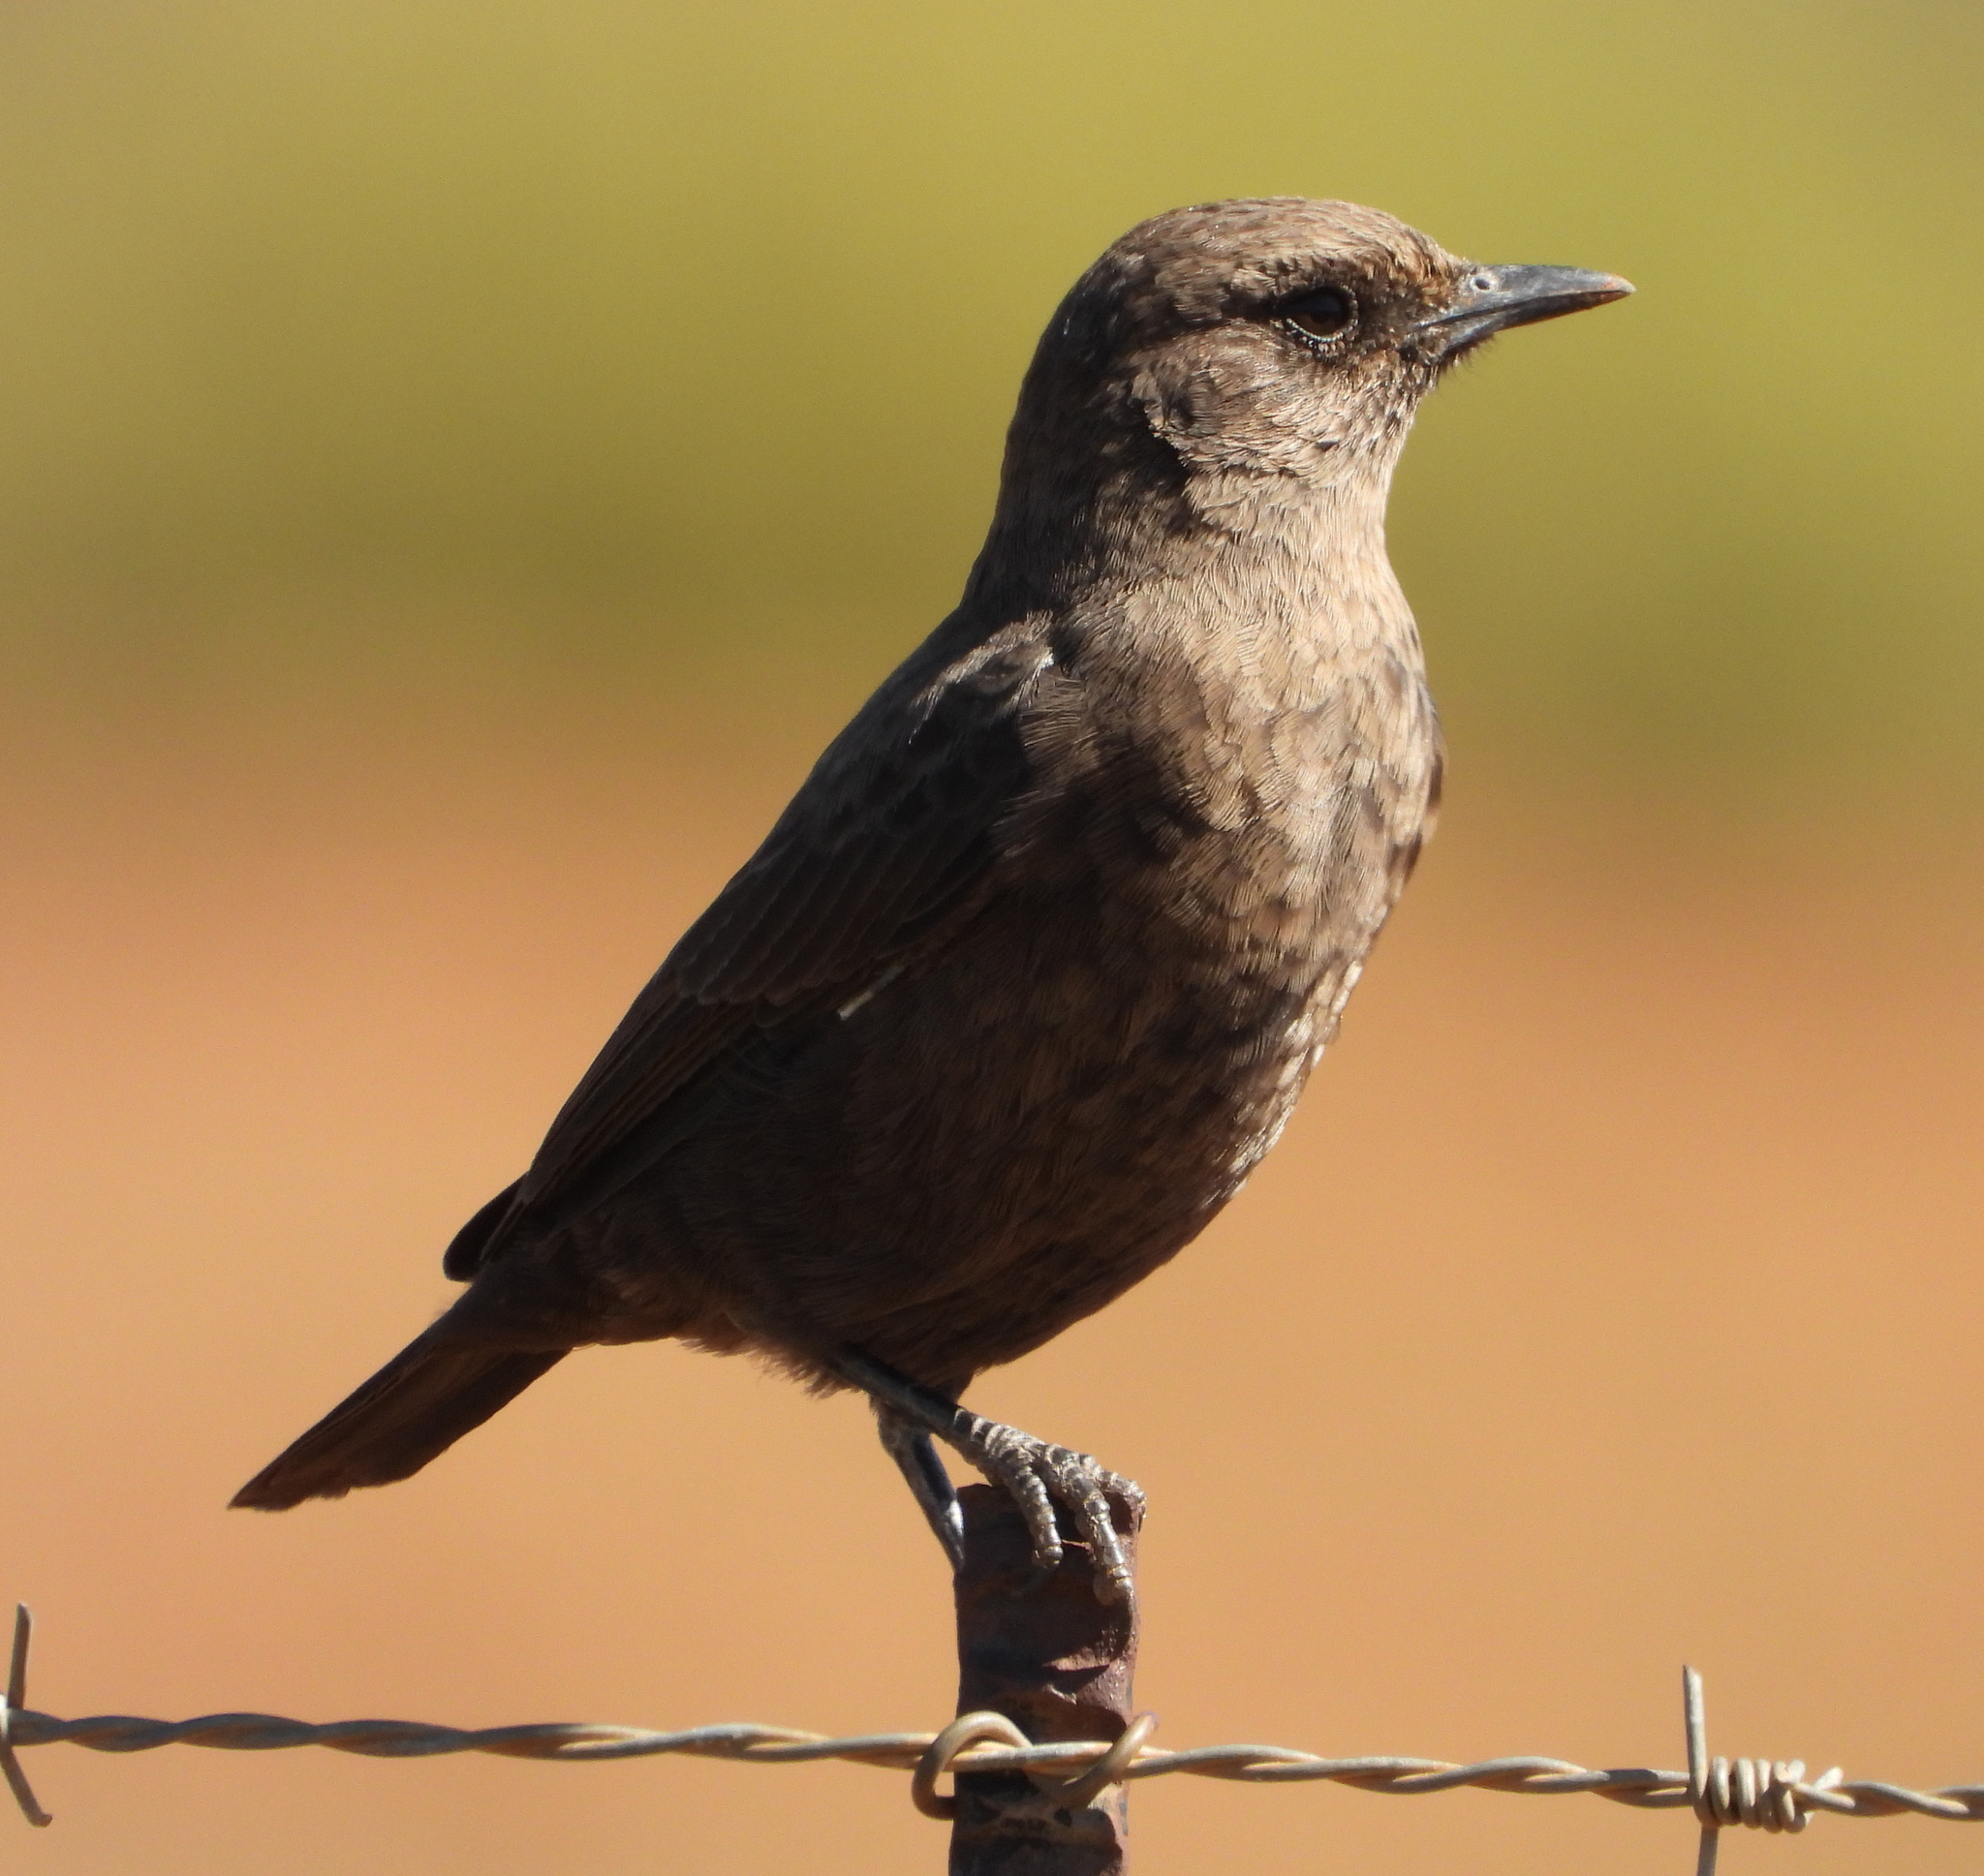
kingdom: Animalia
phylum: Chordata
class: Aves
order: Passeriformes
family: Muscicapidae
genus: Myrmecocichla
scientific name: Myrmecocichla formicivora
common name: Ant-eating chat
